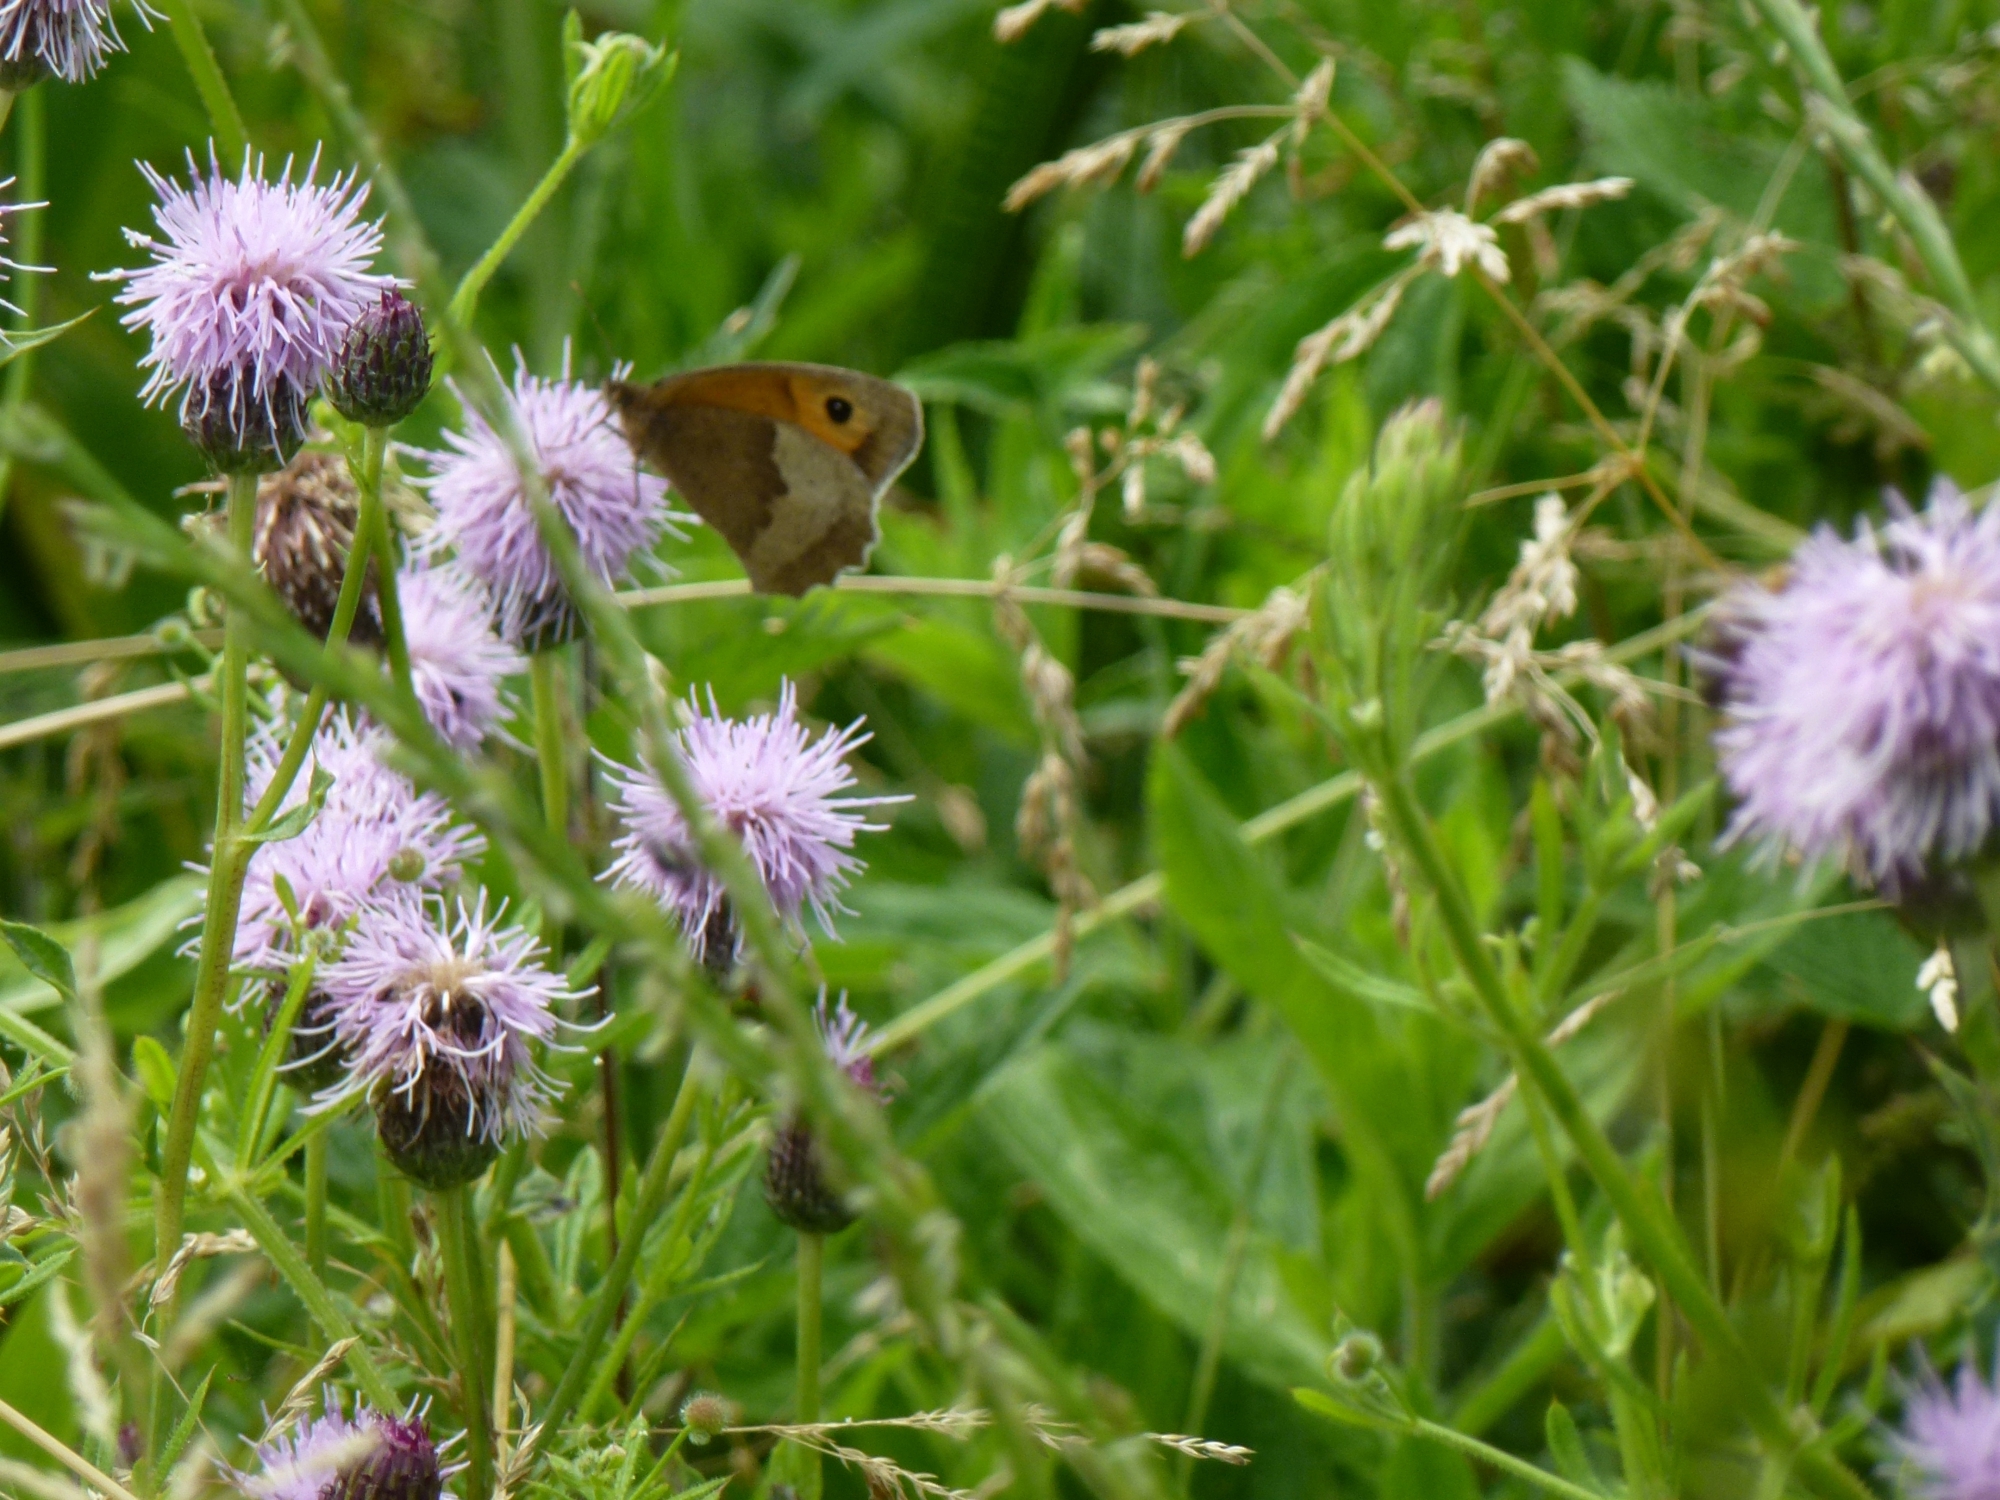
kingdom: Animalia
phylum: Arthropoda
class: Insecta
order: Lepidoptera
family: Nymphalidae
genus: Maniola
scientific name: Maniola jurtina
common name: Meadow brown
